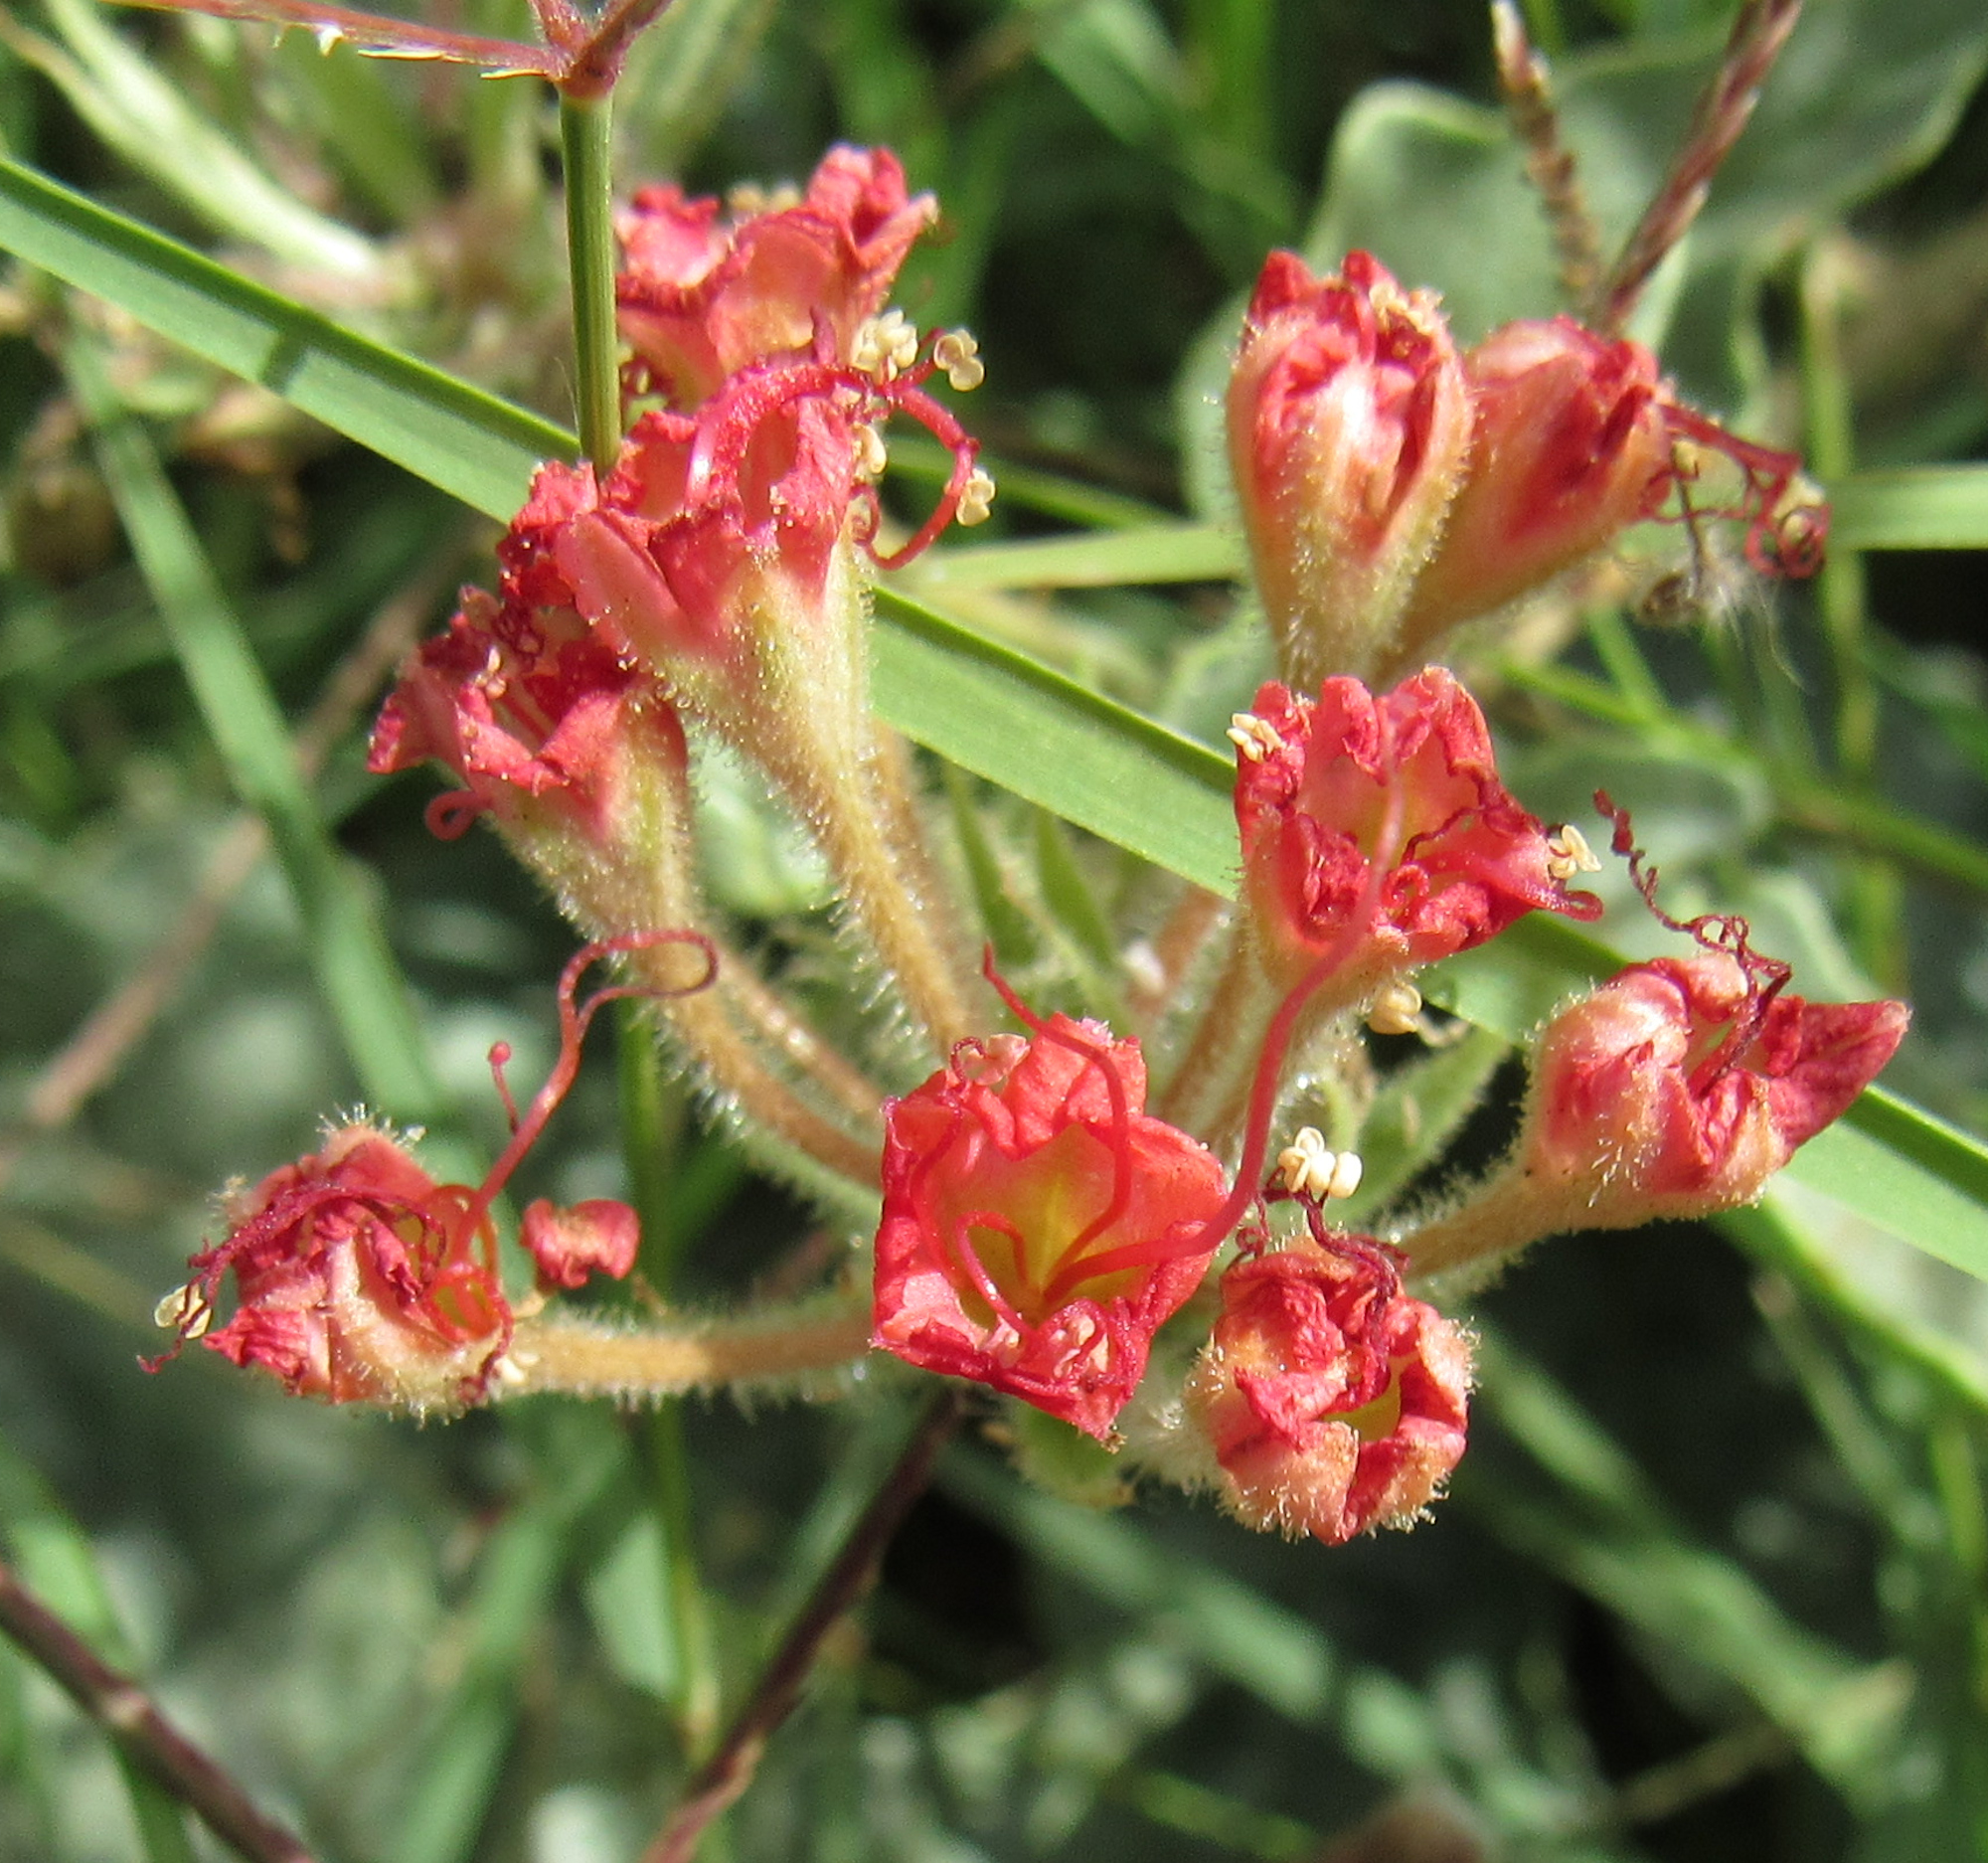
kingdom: Plantae
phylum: Tracheophyta
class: Magnoliopsida
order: Caryophyllales
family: Nyctaginaceae
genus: Nyctaginia
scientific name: Nyctaginia capitata
